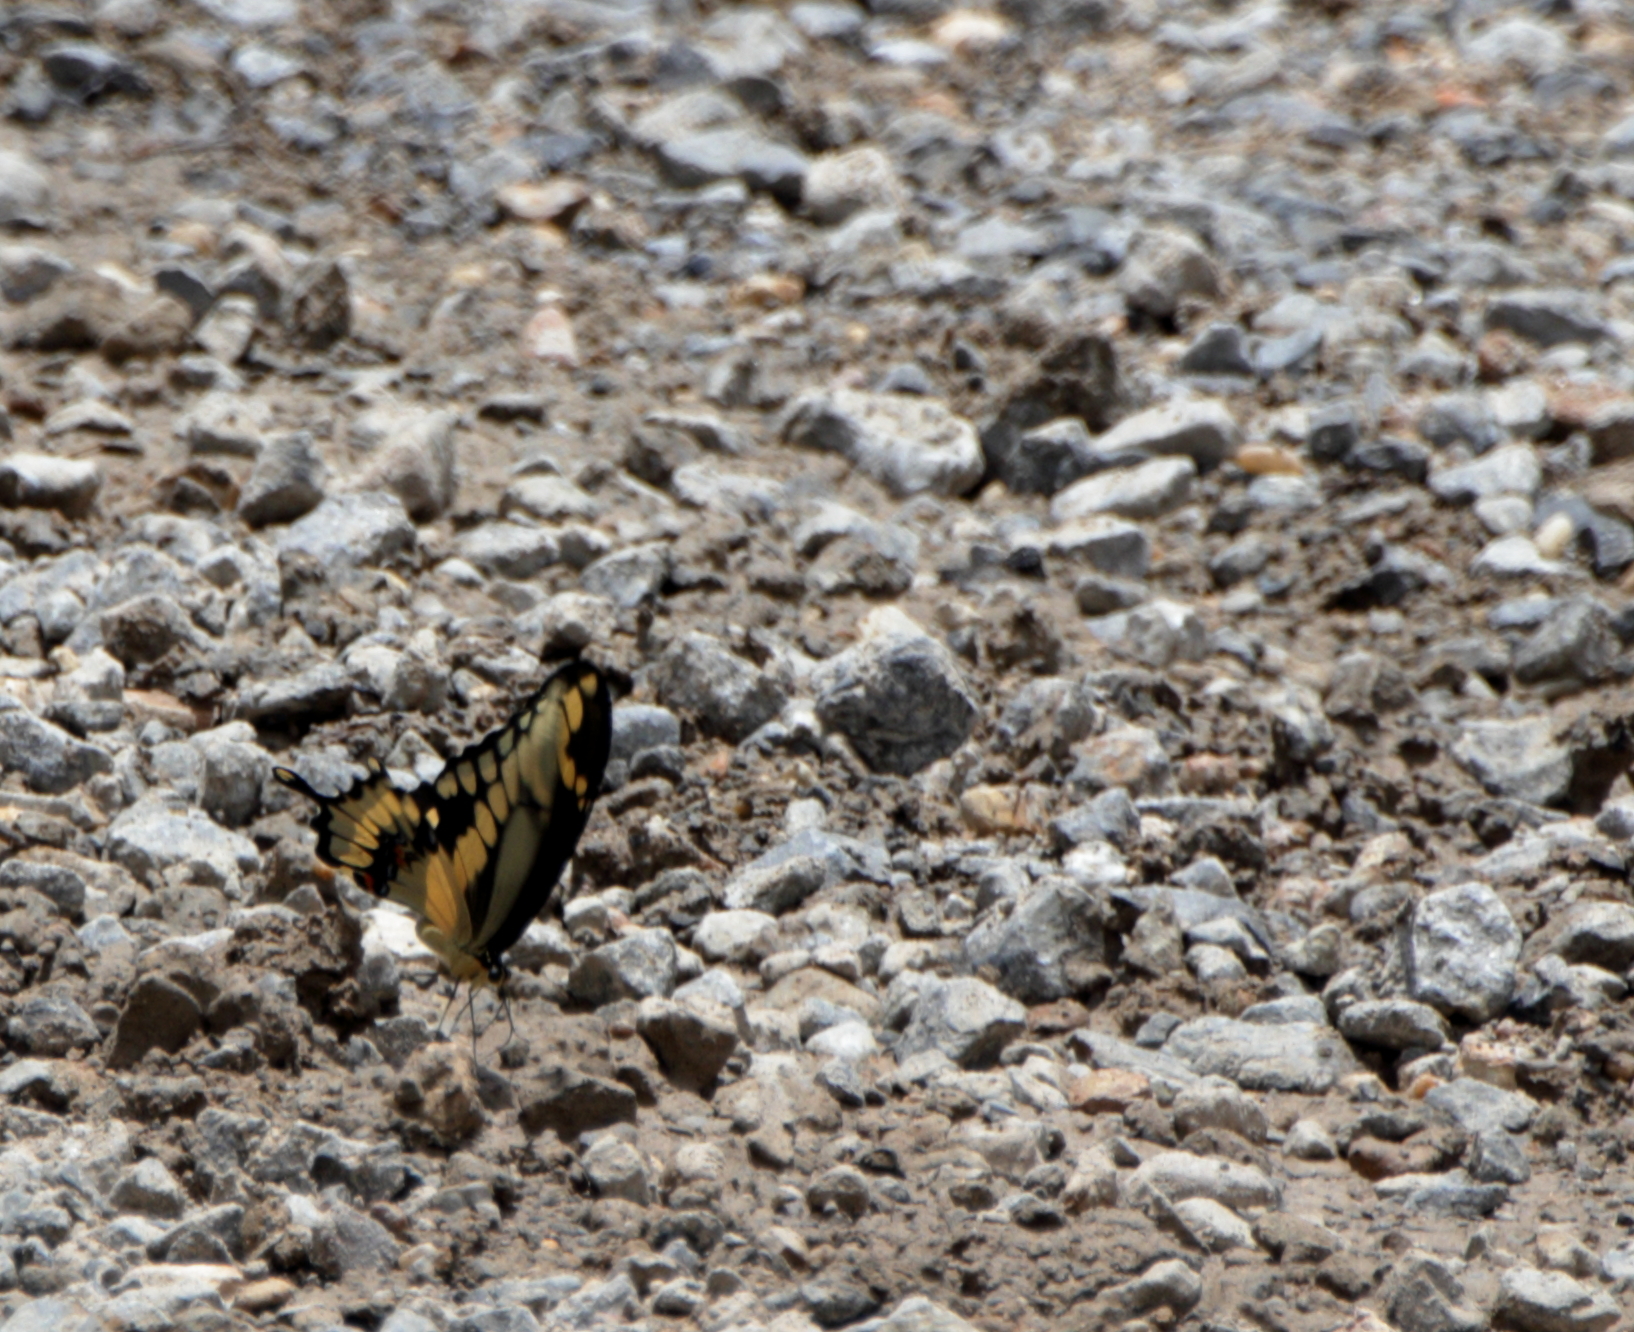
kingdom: Animalia
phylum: Arthropoda
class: Insecta
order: Lepidoptera
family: Papilionidae
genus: Papilio
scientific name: Papilio cresphontes
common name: Giant swallowtail
